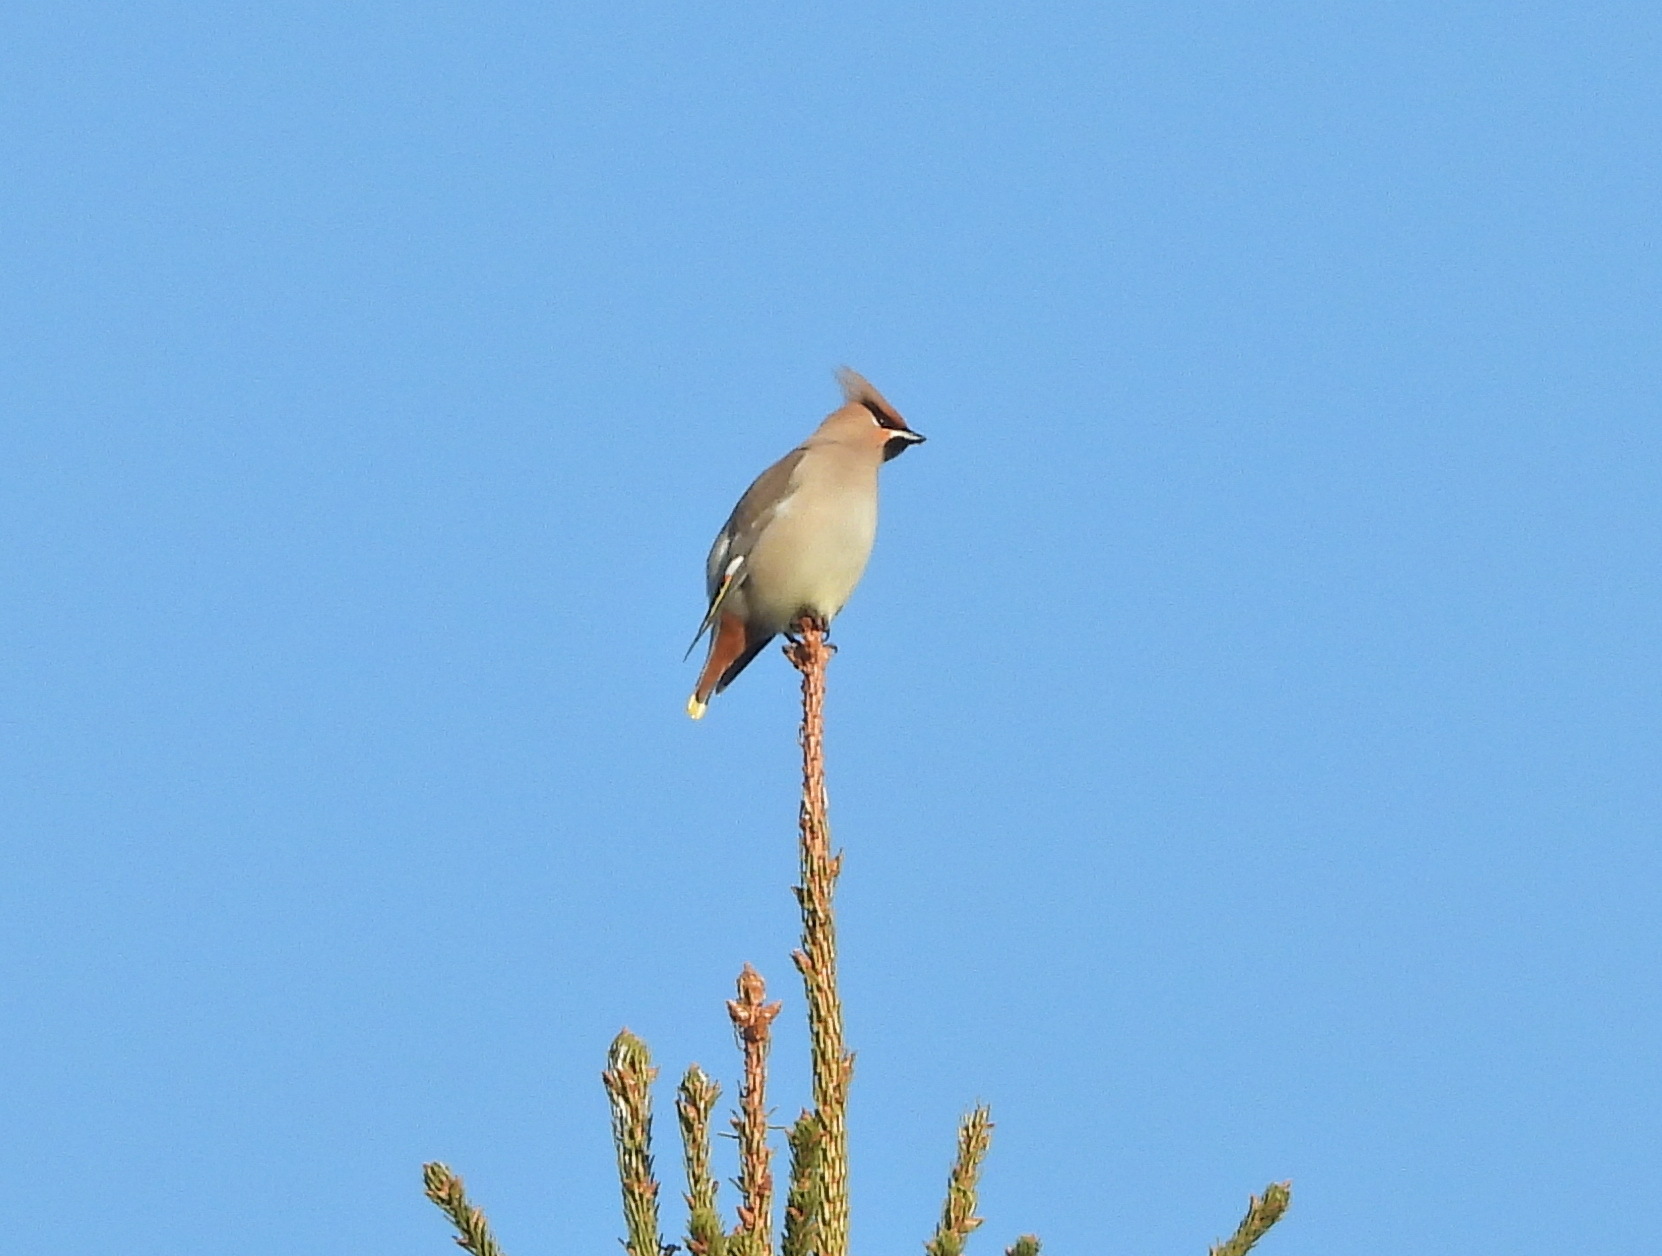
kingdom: Animalia
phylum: Chordata
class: Aves
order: Passeriformes
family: Bombycillidae
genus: Bombycilla
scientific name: Bombycilla garrulus
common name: Bohemian waxwing
